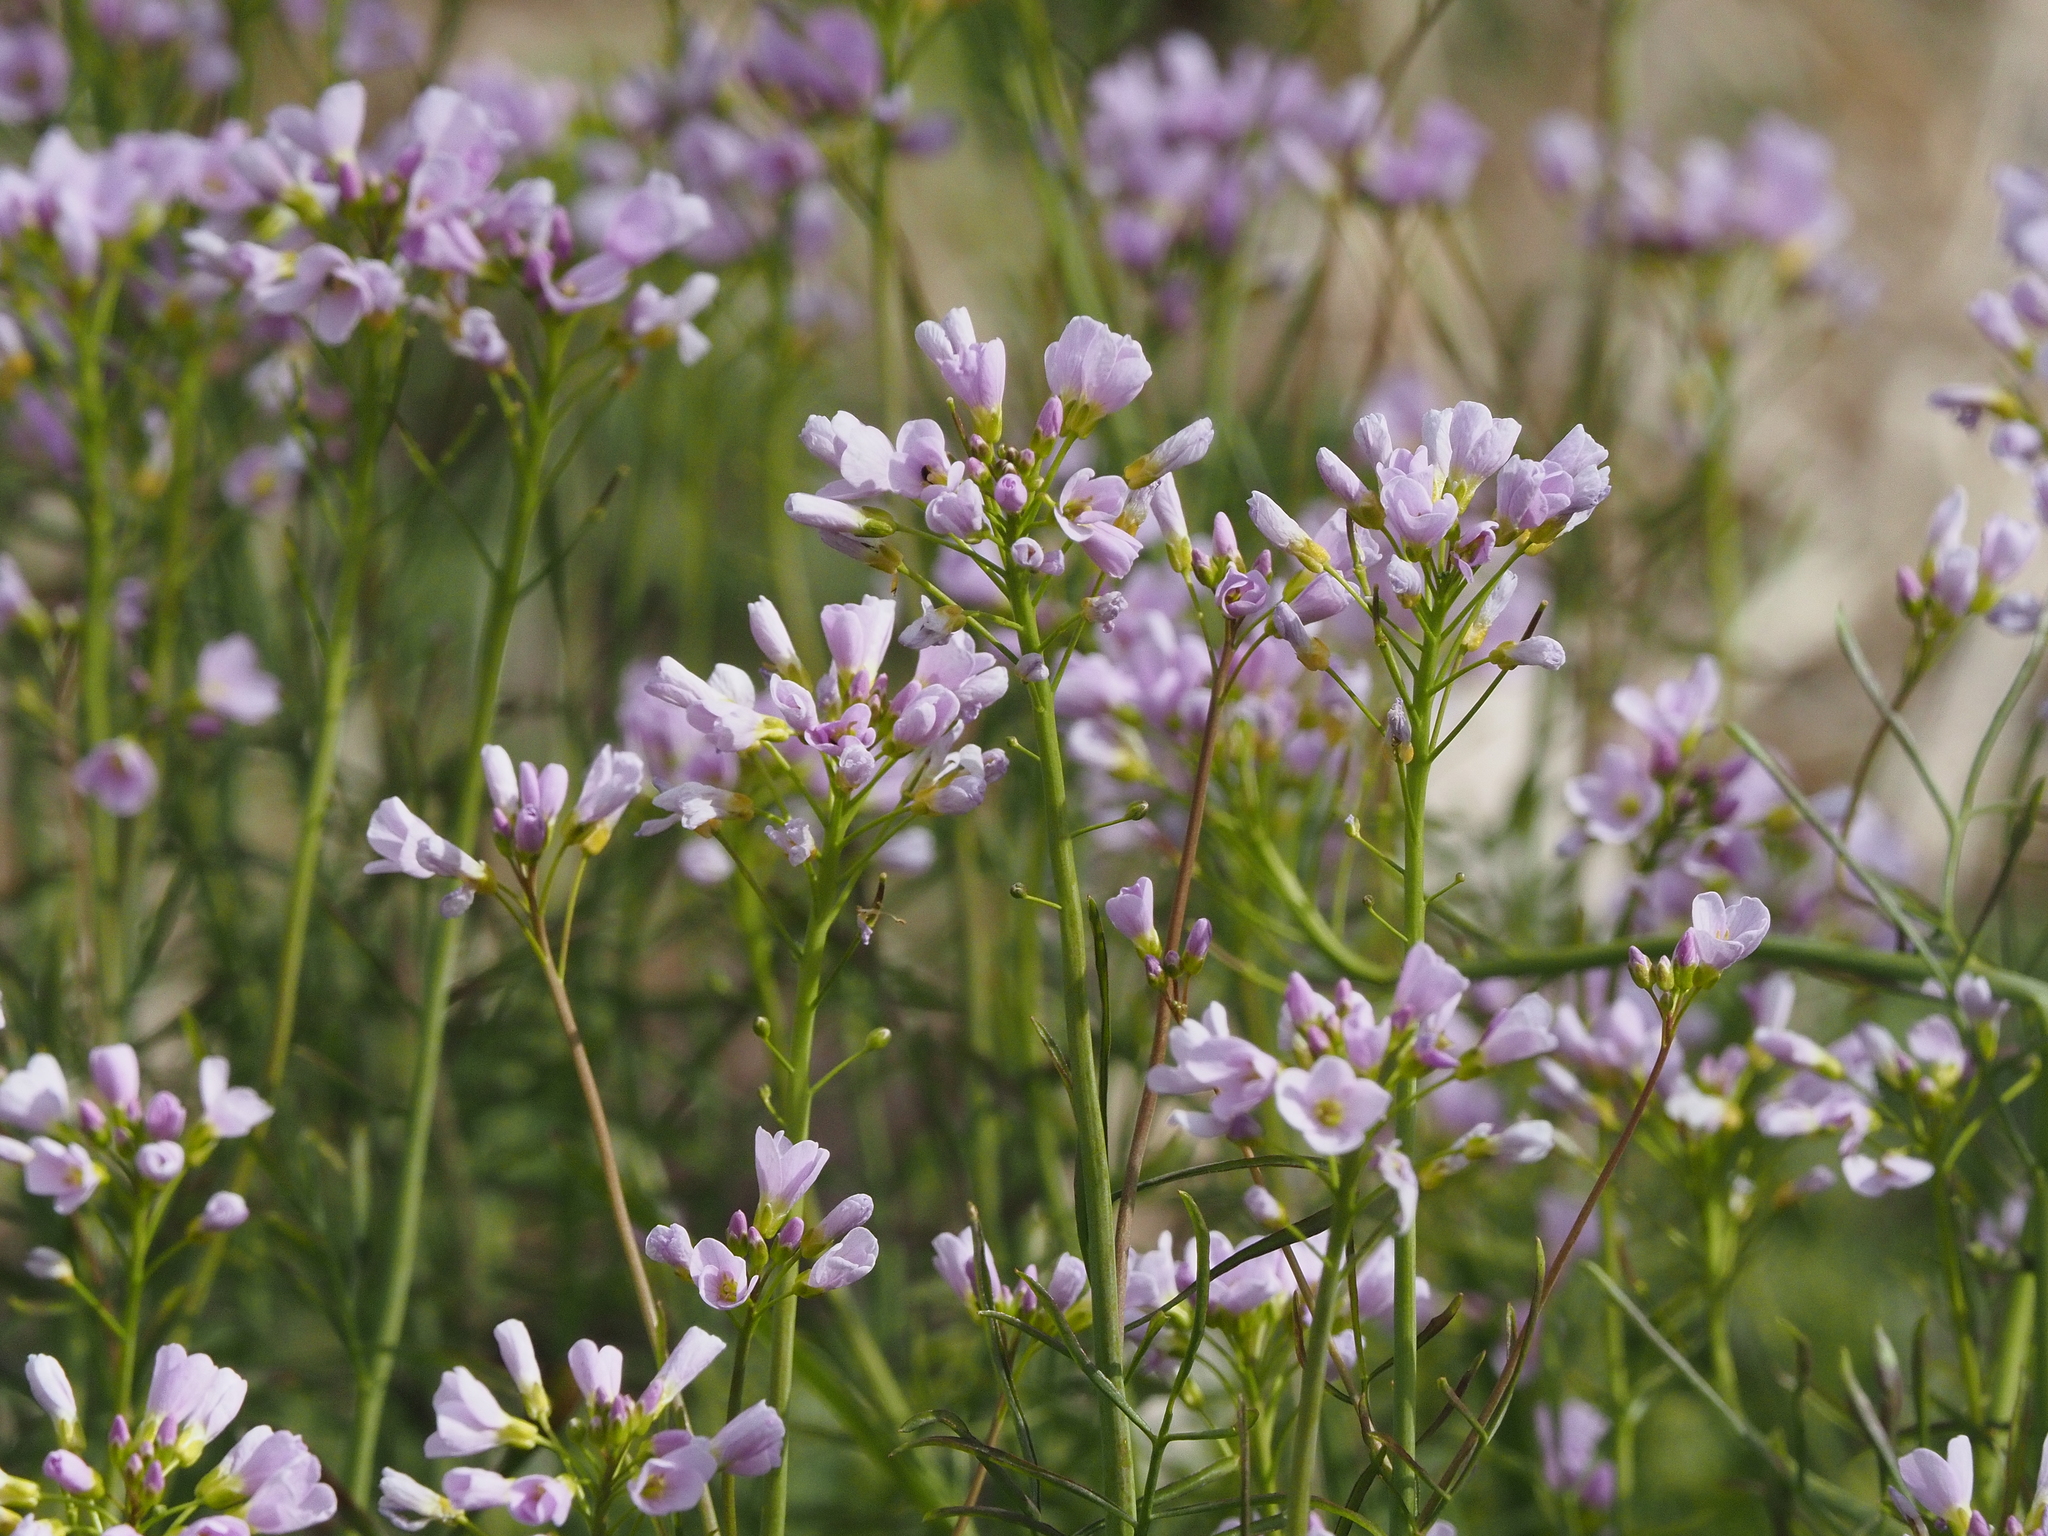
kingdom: Plantae
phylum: Tracheophyta
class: Magnoliopsida
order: Brassicales
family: Brassicaceae
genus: Cardamine
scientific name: Cardamine pratensis
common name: Cuckoo flower
